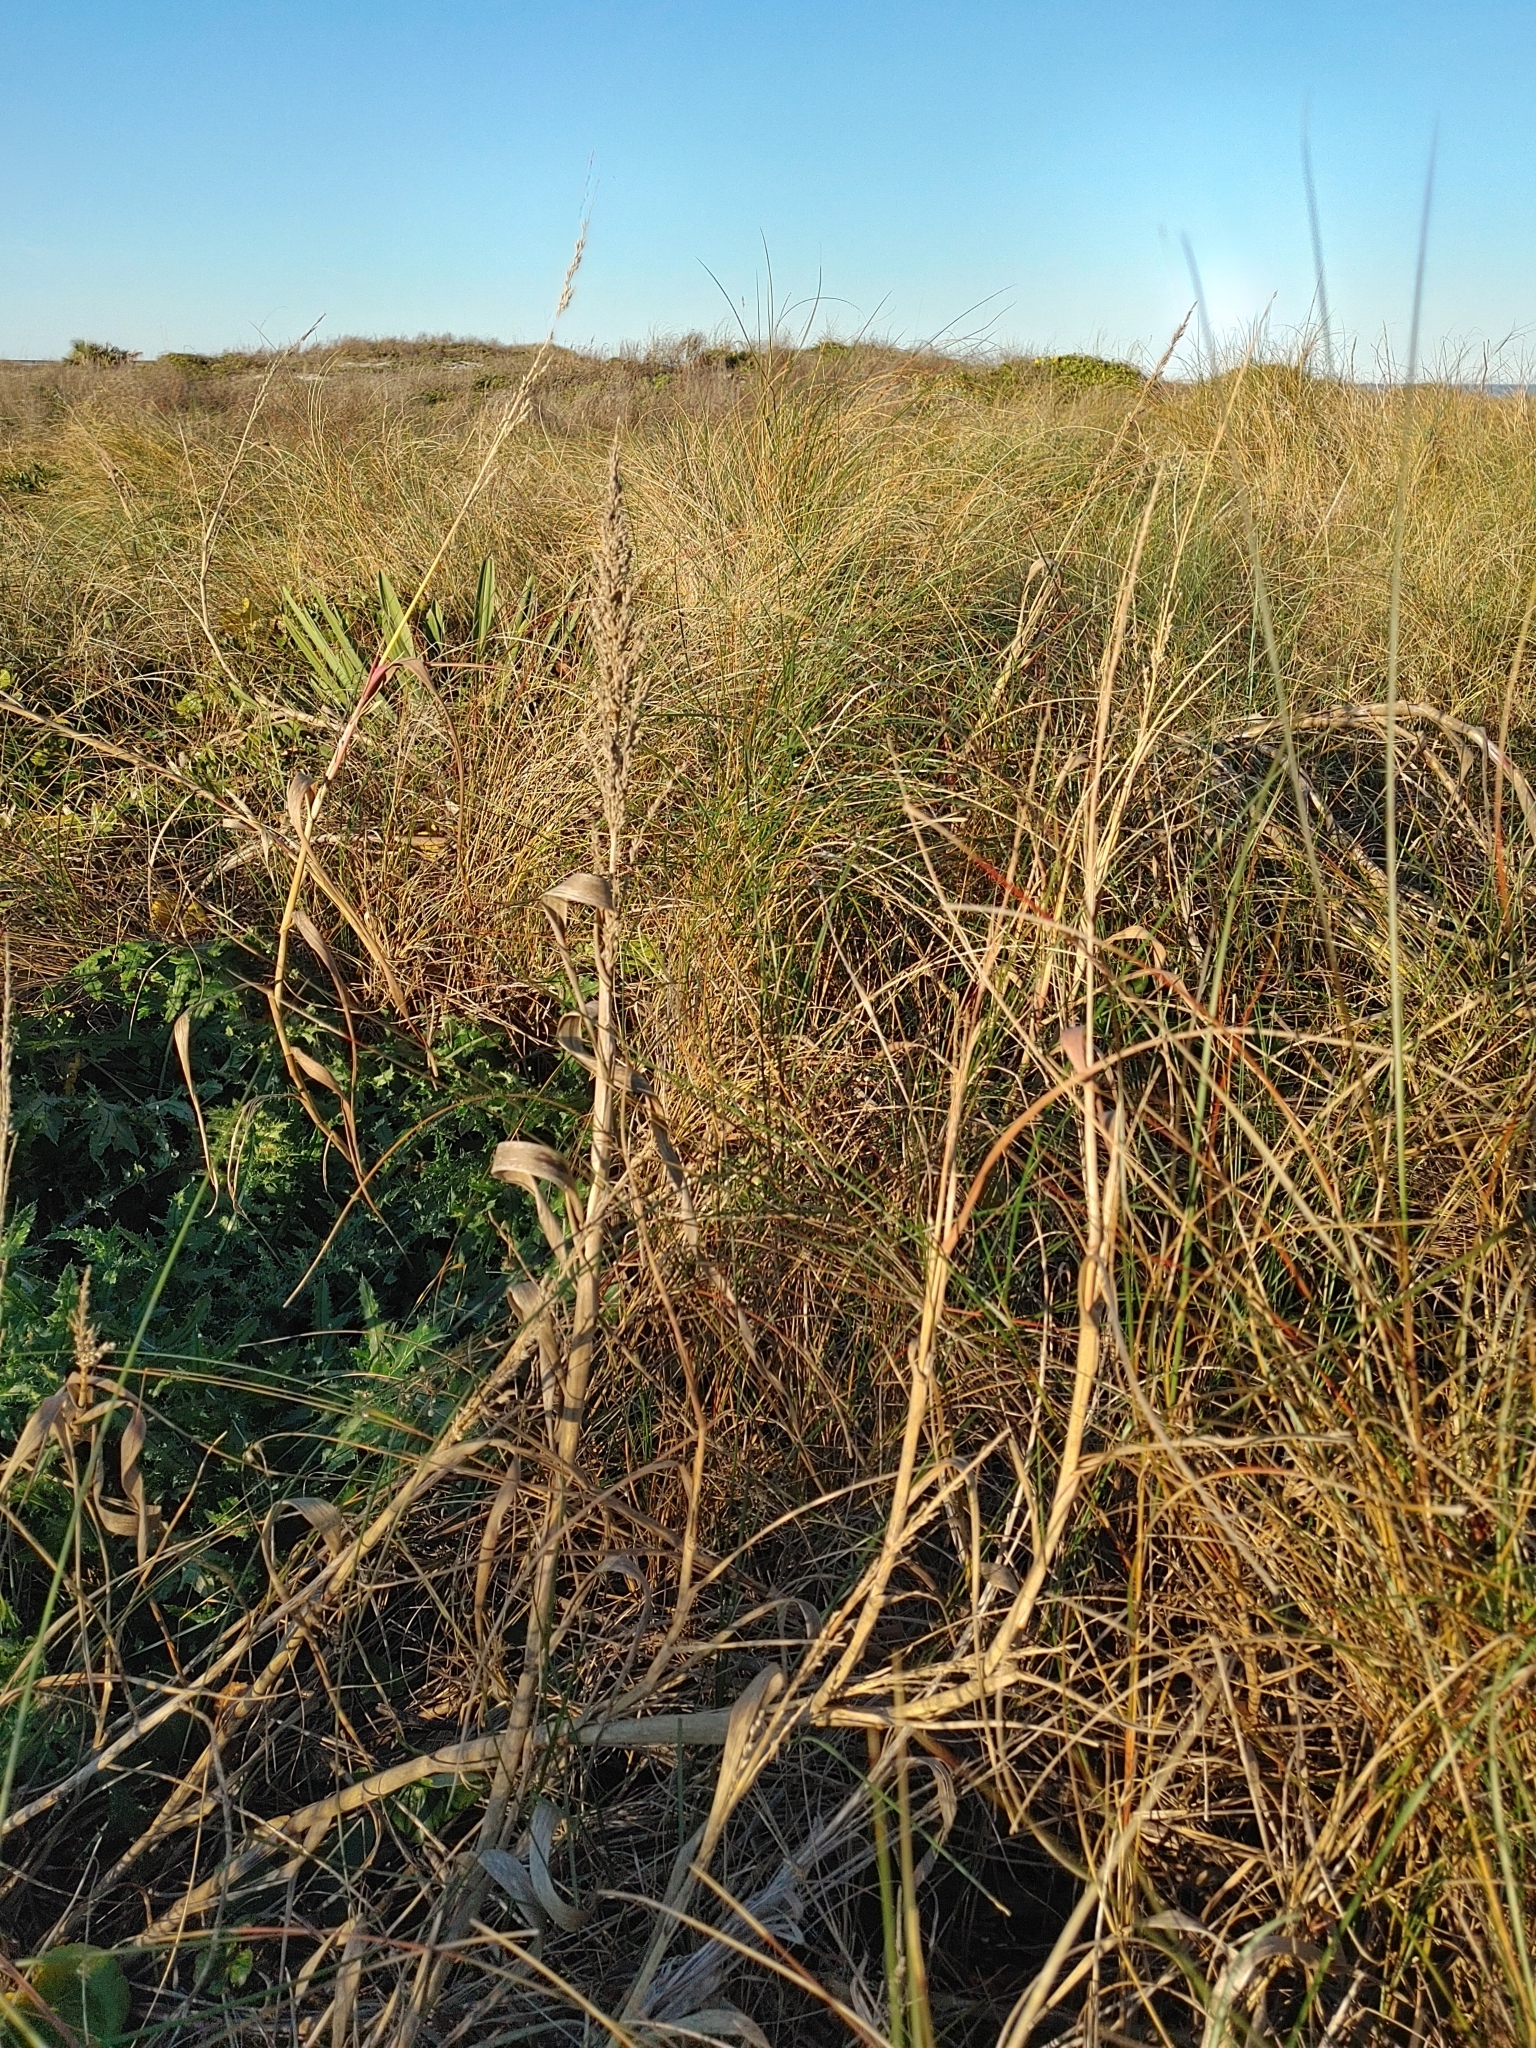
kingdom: Plantae
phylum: Tracheophyta
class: Liliopsida
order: Poales
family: Poaceae
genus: Panicum
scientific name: Panicum amarum
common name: Bitter panicum
